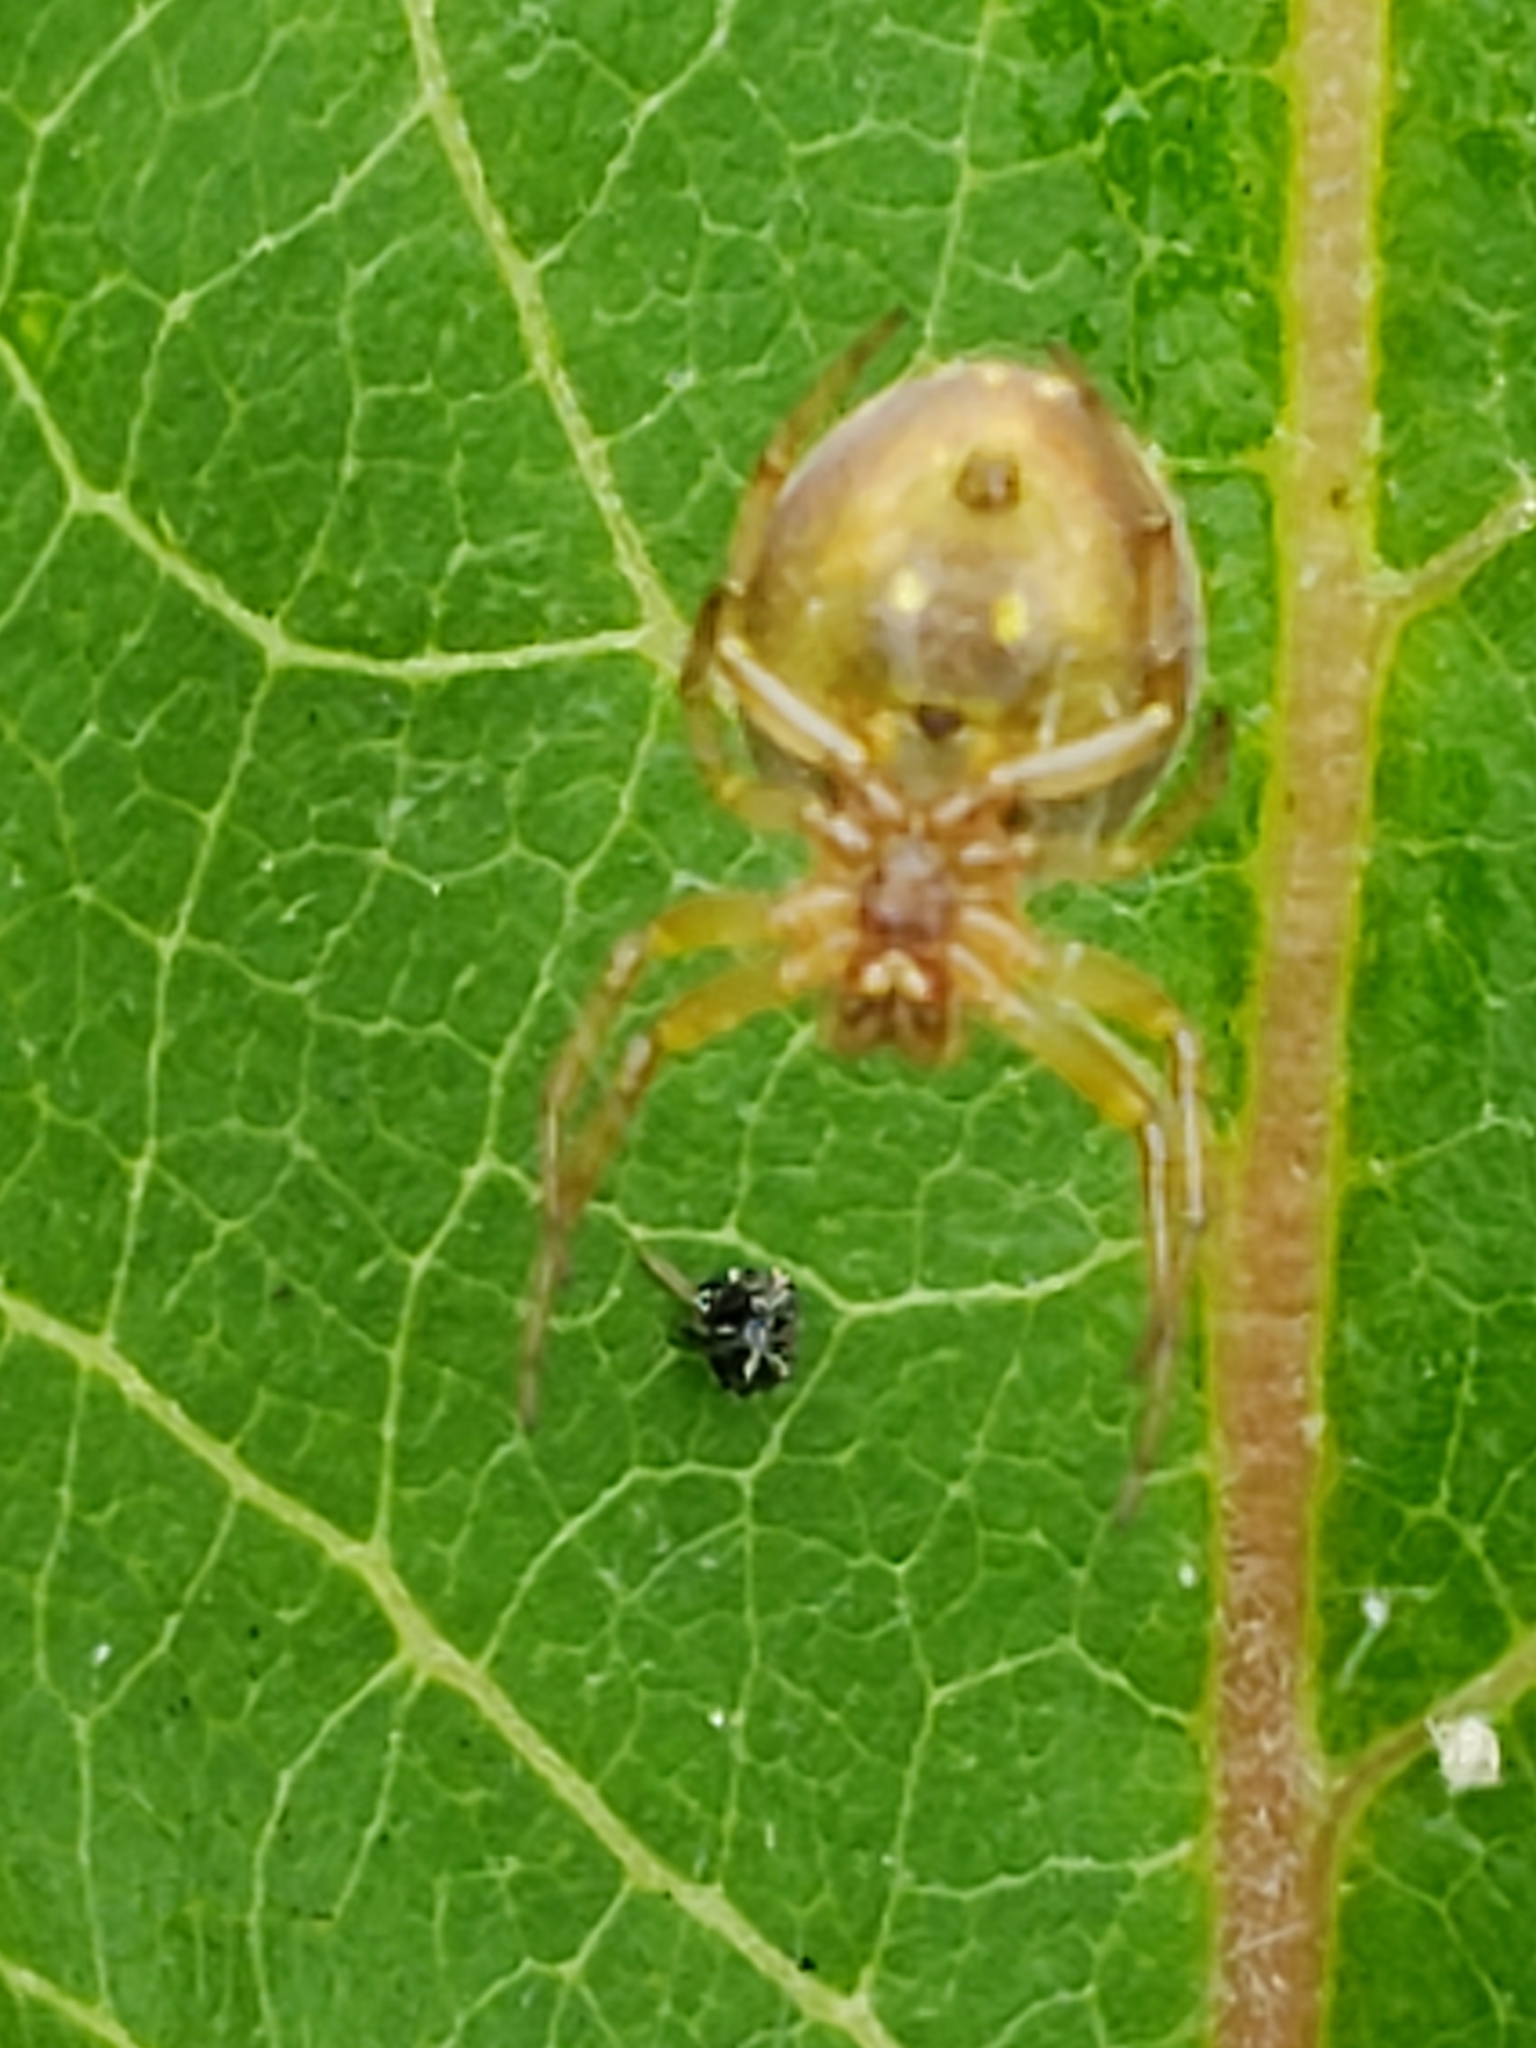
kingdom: Animalia
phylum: Arthropoda
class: Arachnida
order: Araneae
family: Araneidae
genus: Araniella
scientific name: Araniella displicata
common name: Sixspotted orb weaver
